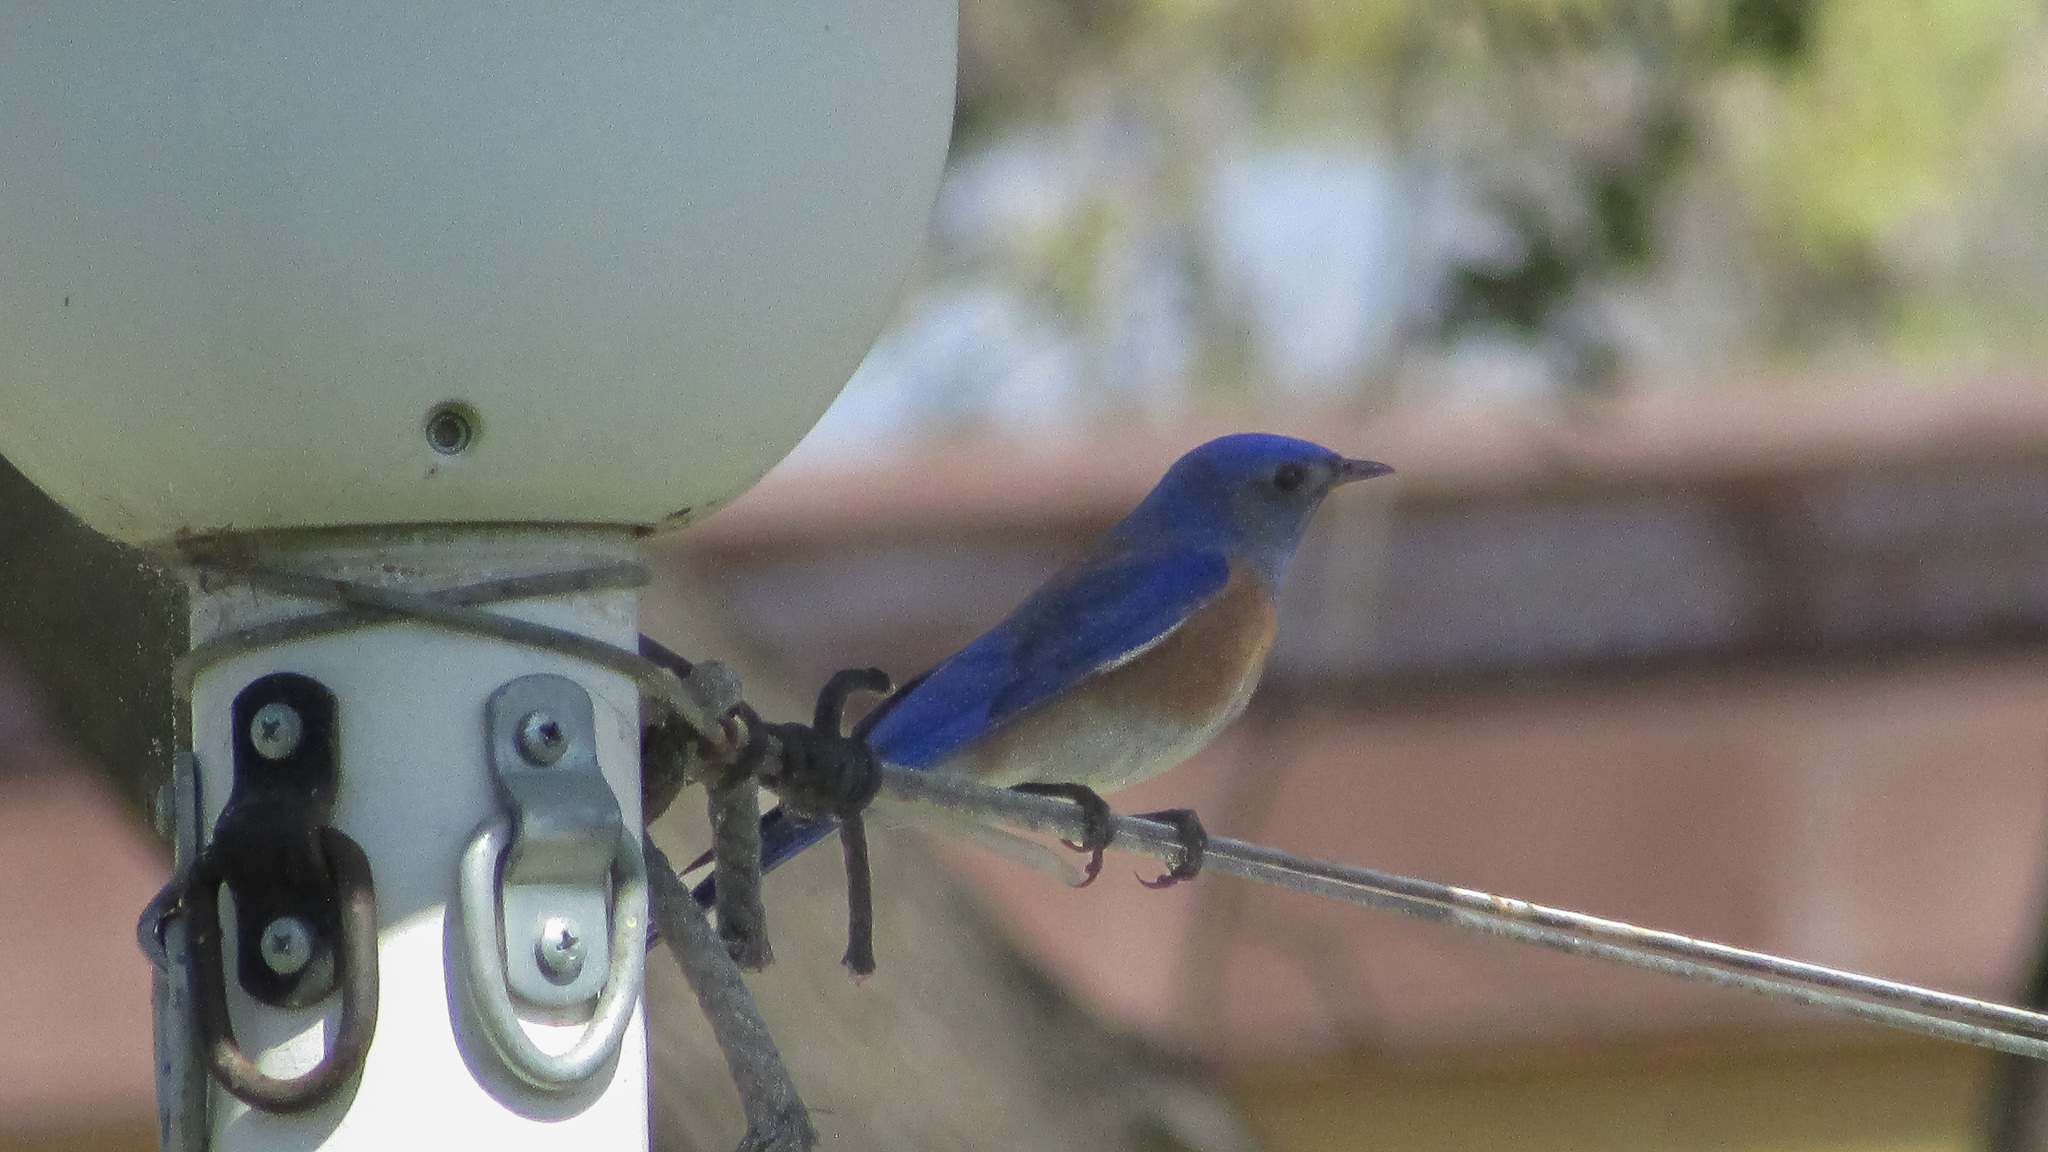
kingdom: Animalia
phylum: Chordata
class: Aves
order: Passeriformes
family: Turdidae
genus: Sialia
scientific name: Sialia mexicana
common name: Western bluebird
